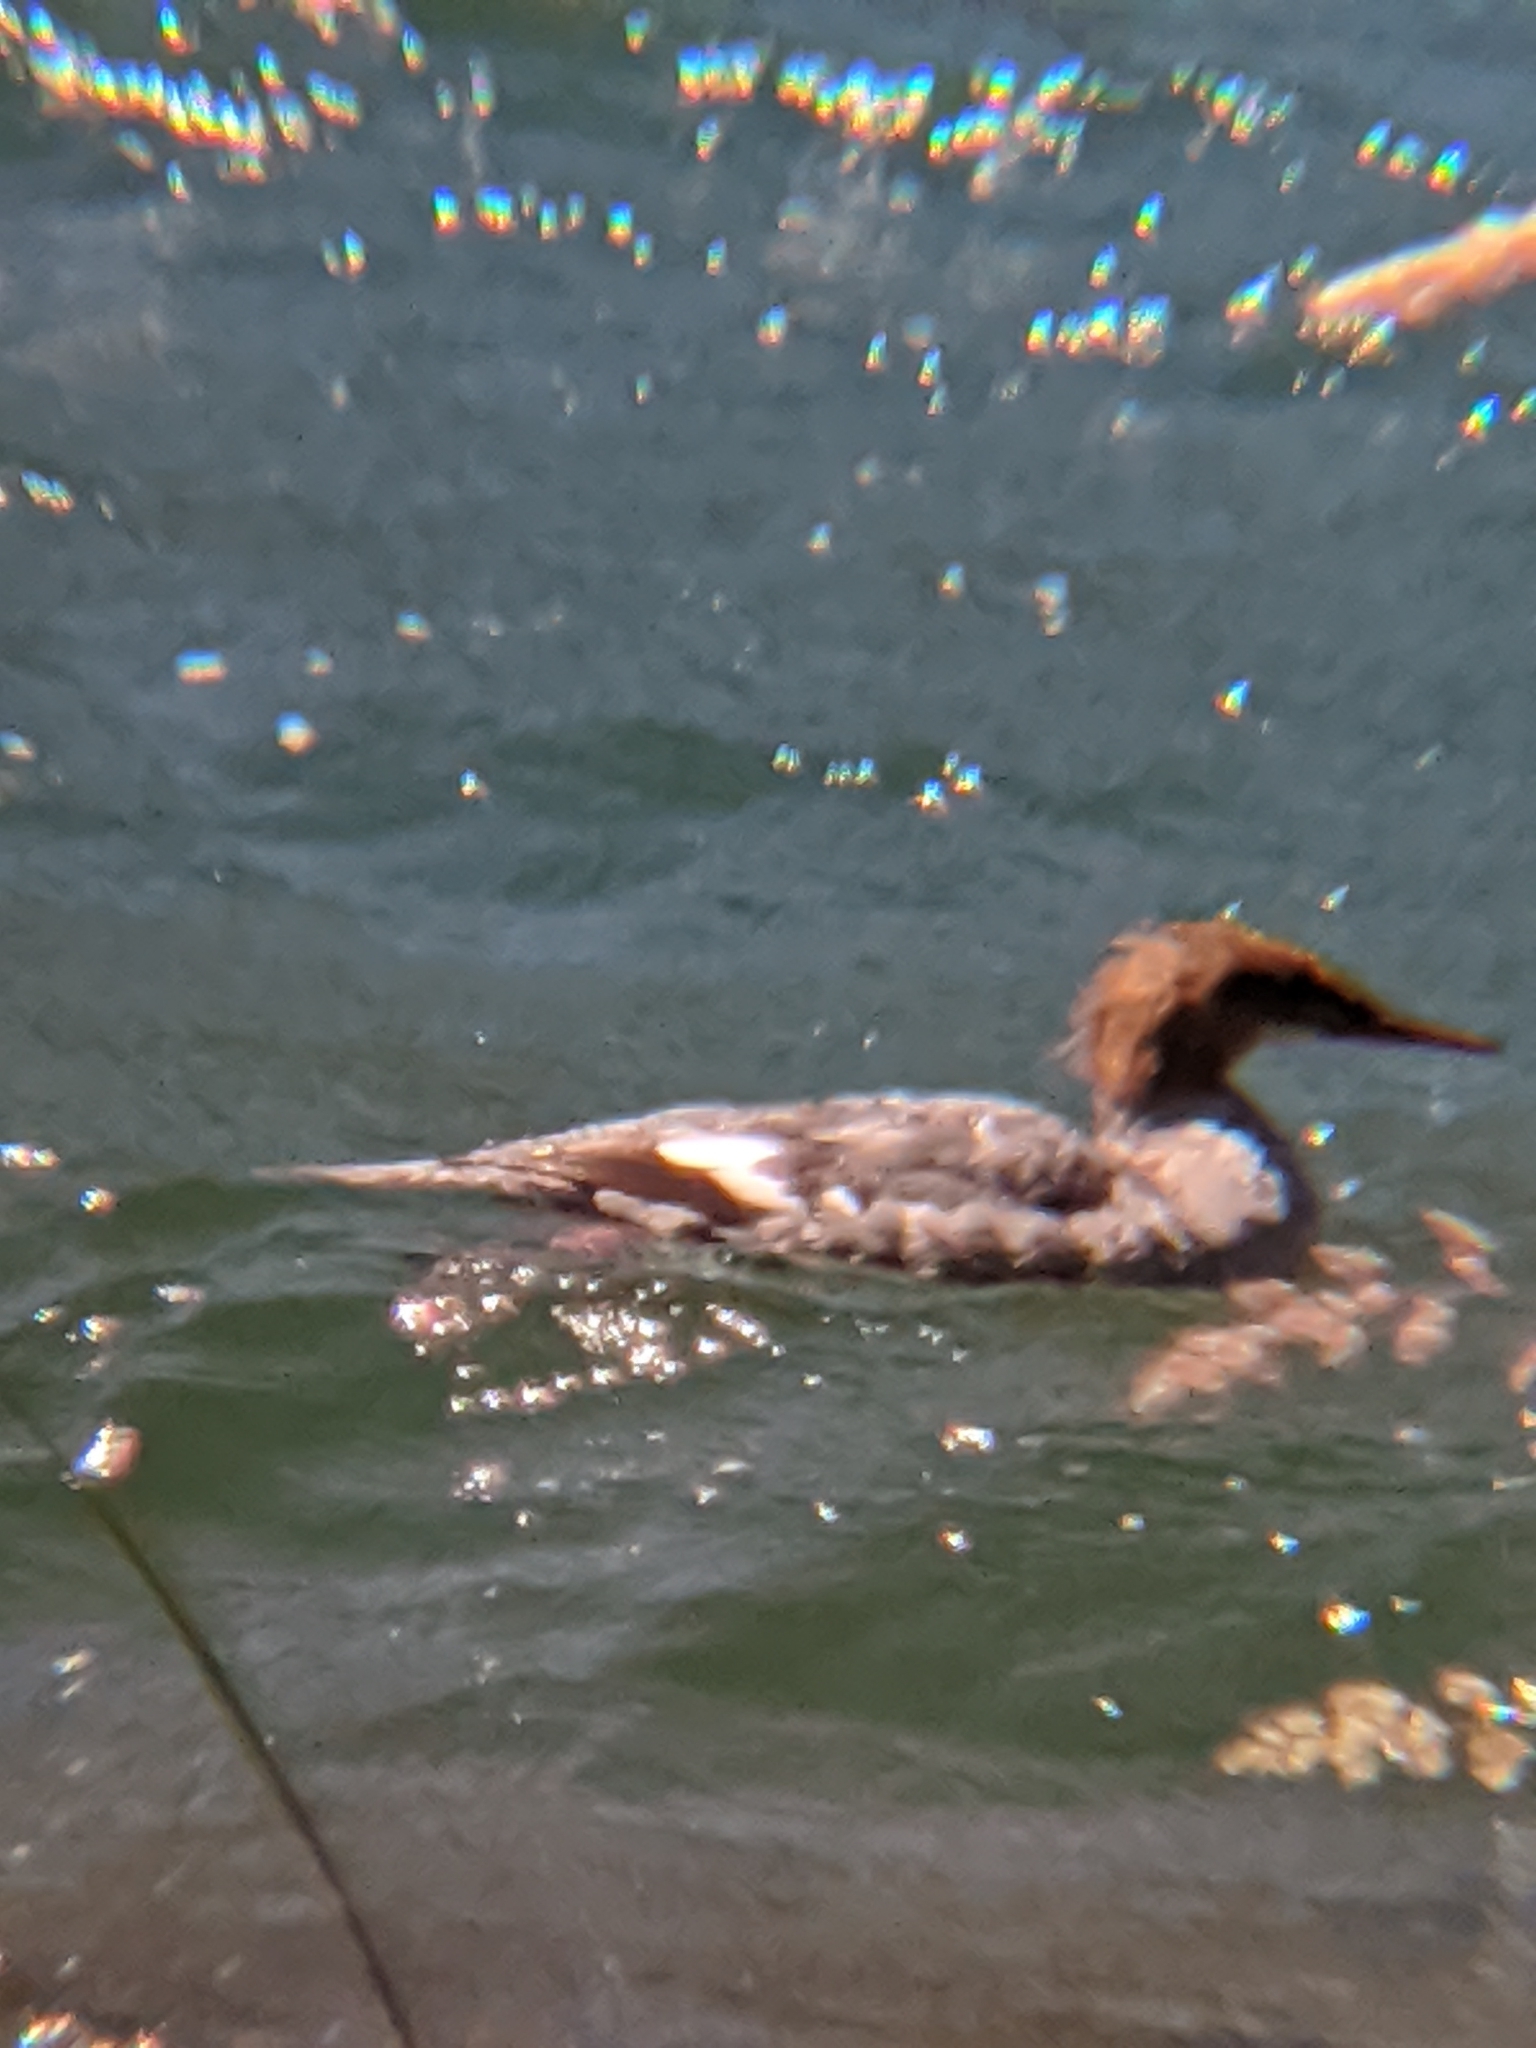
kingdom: Animalia
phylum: Chordata
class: Aves
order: Anseriformes
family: Anatidae
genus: Mergus
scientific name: Mergus merganser
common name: Common merganser
